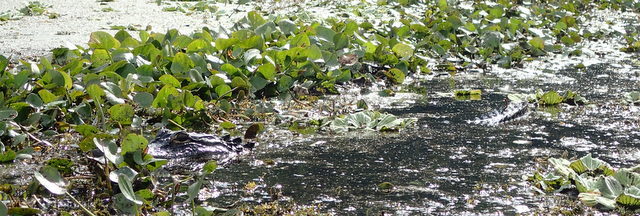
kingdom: Animalia
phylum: Chordata
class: Crocodylia
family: Alligatoridae
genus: Alligator
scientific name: Alligator mississippiensis
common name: American alligator
